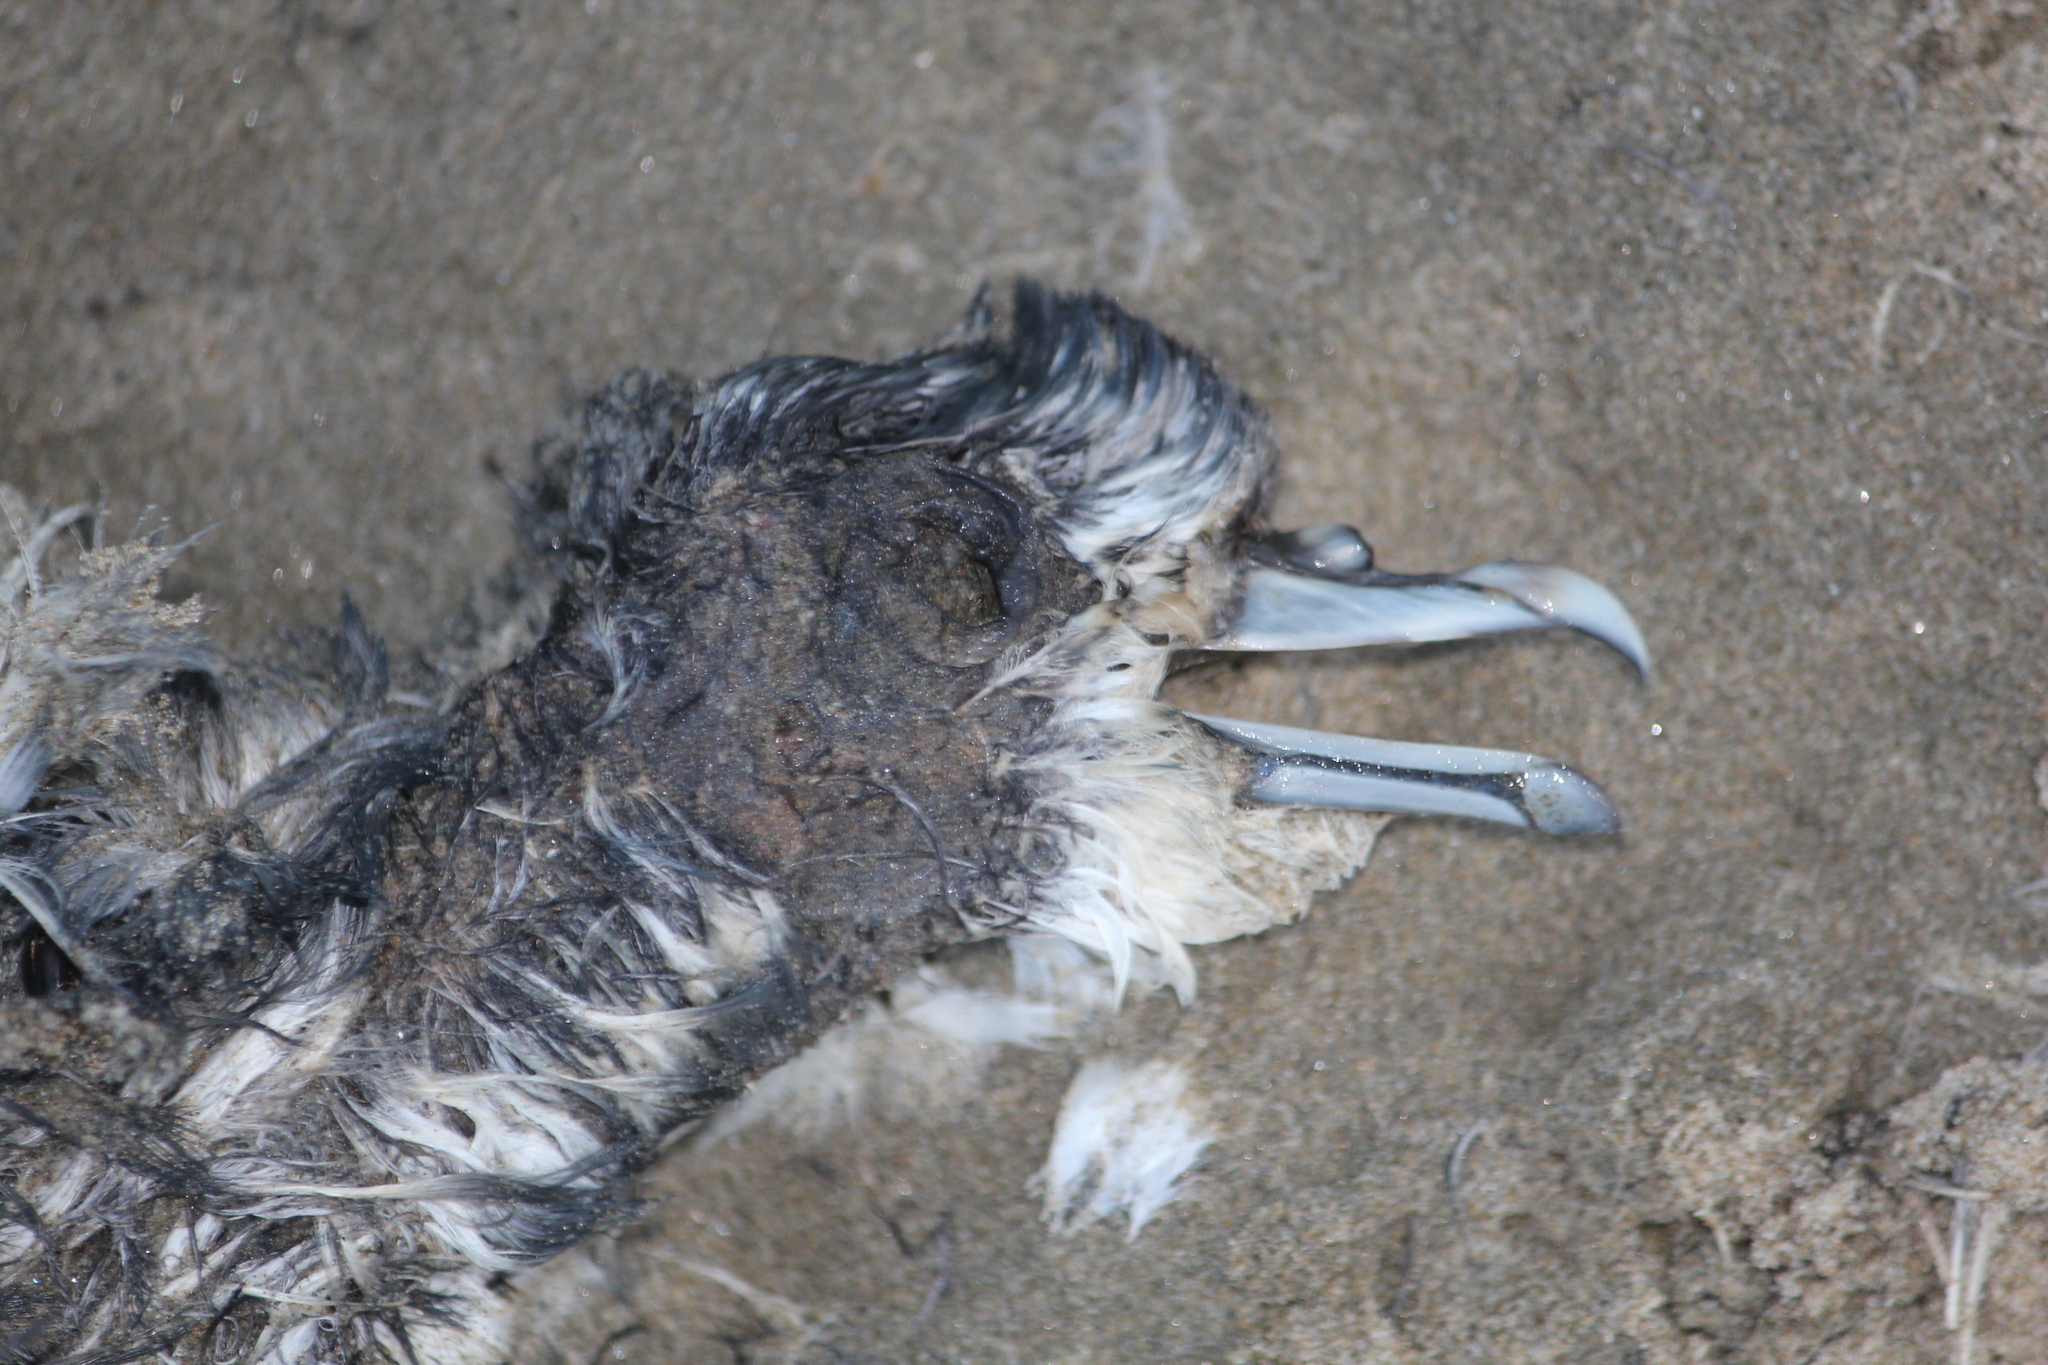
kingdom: Animalia
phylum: Chordata
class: Aves
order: Procellariiformes
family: Procellariidae
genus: Pachyptila
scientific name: Pachyptila turtur
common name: Fairy prion
